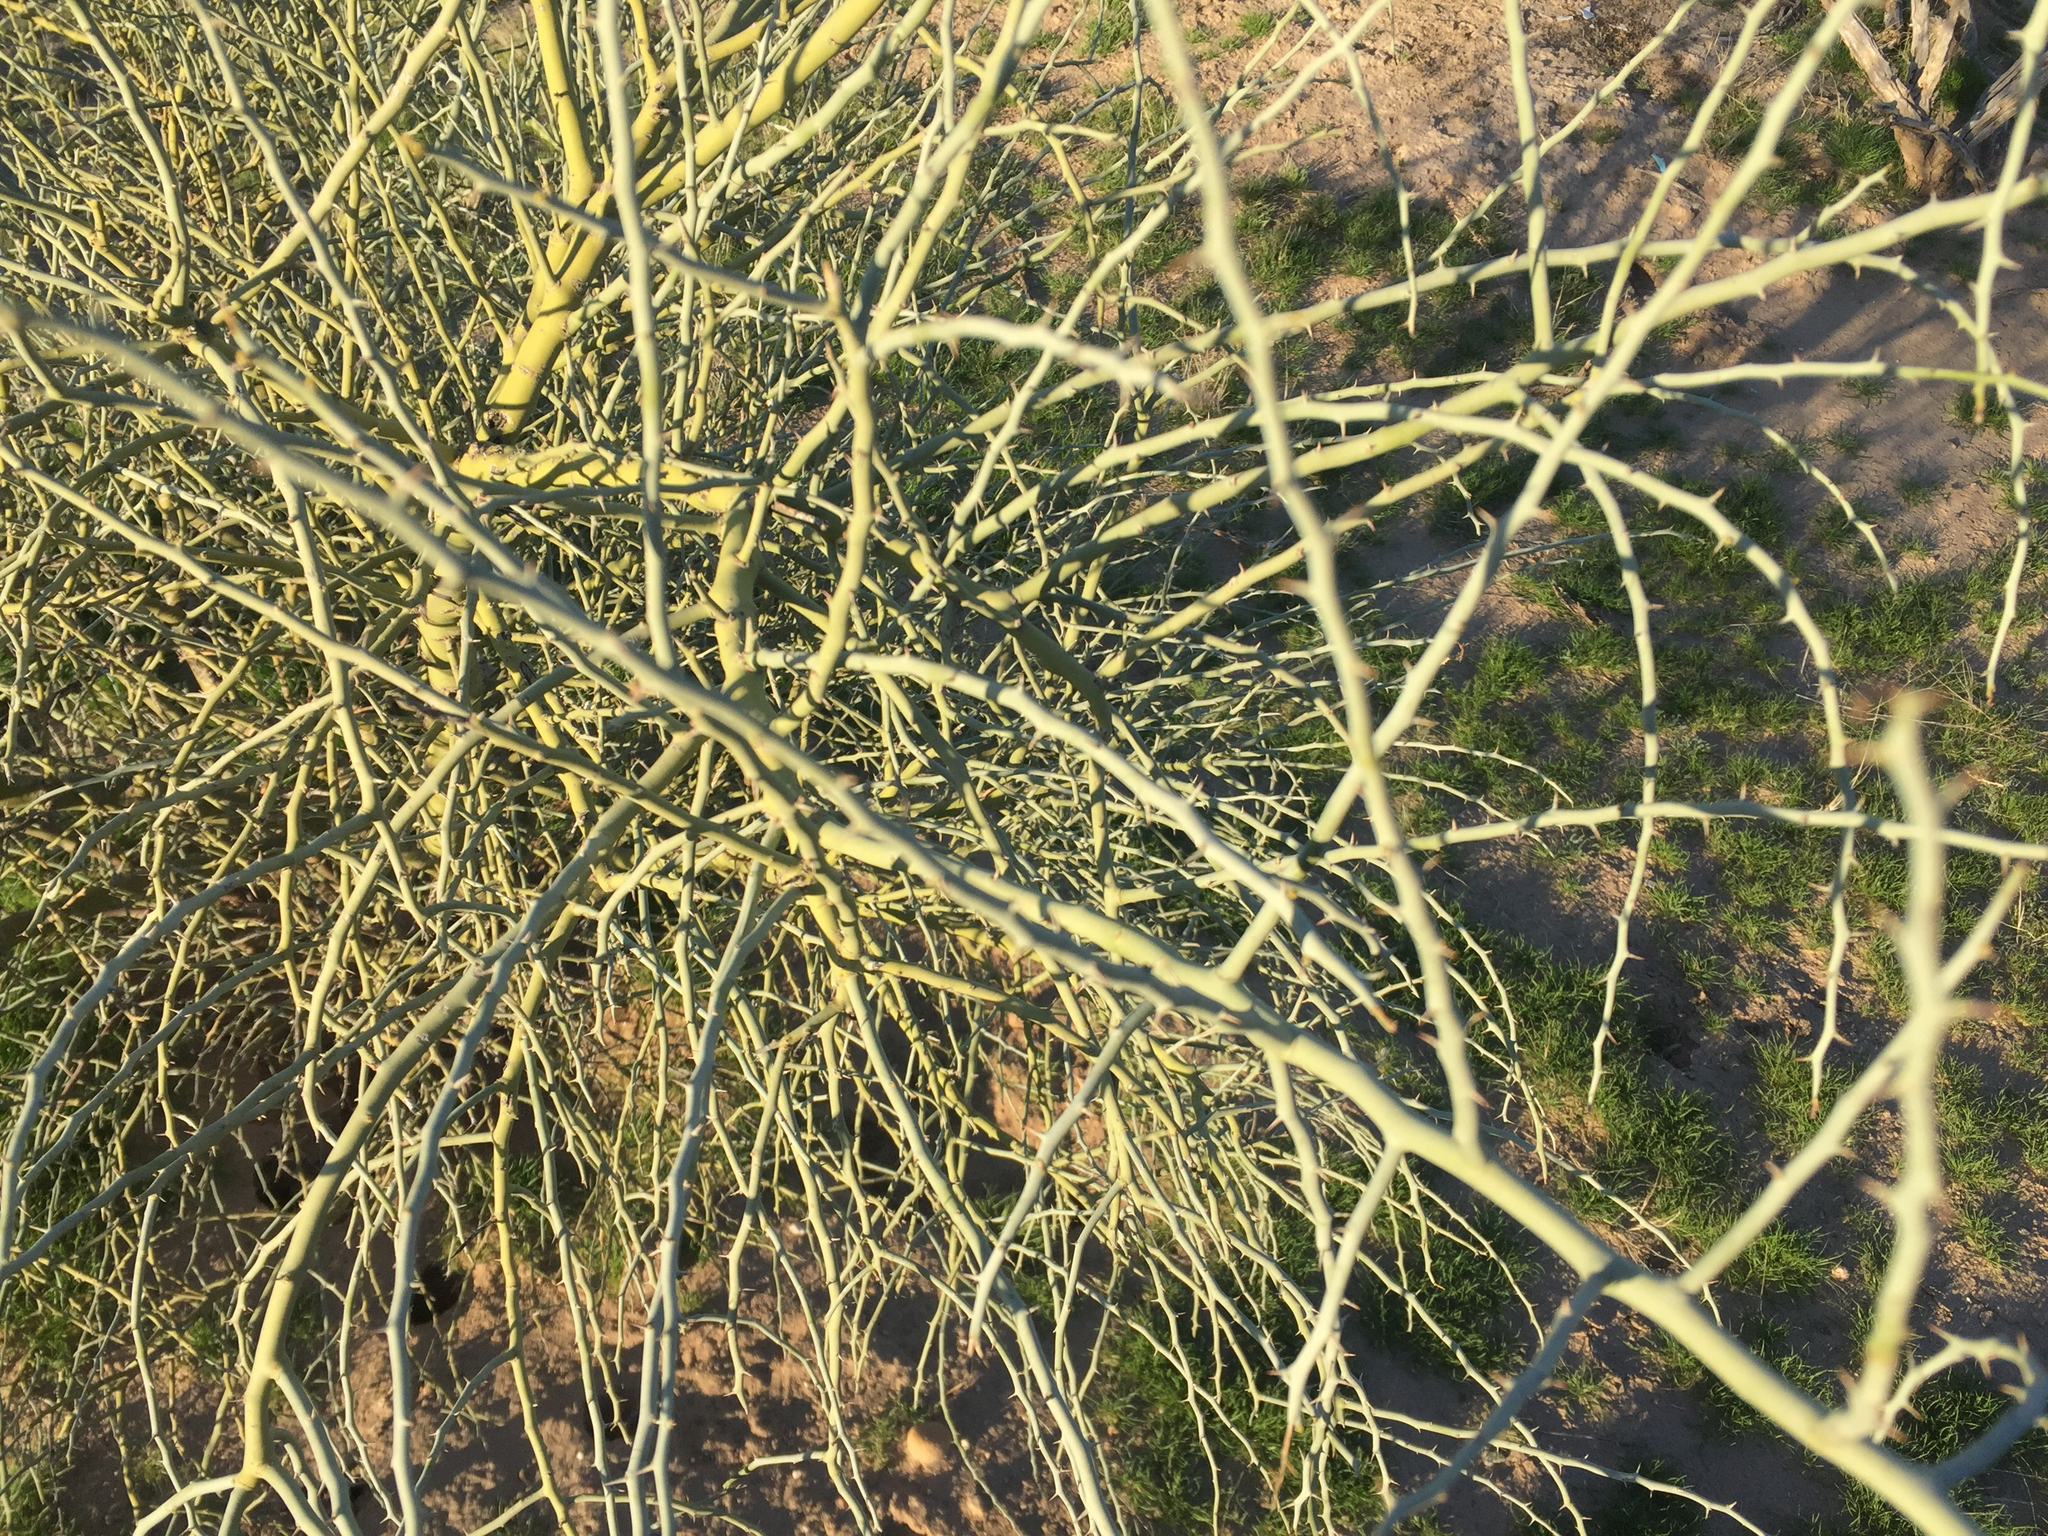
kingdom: Plantae
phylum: Tracheophyta
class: Magnoliopsida
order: Fabales
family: Fabaceae
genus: Parkinsonia
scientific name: Parkinsonia florida
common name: Blue paloverde
